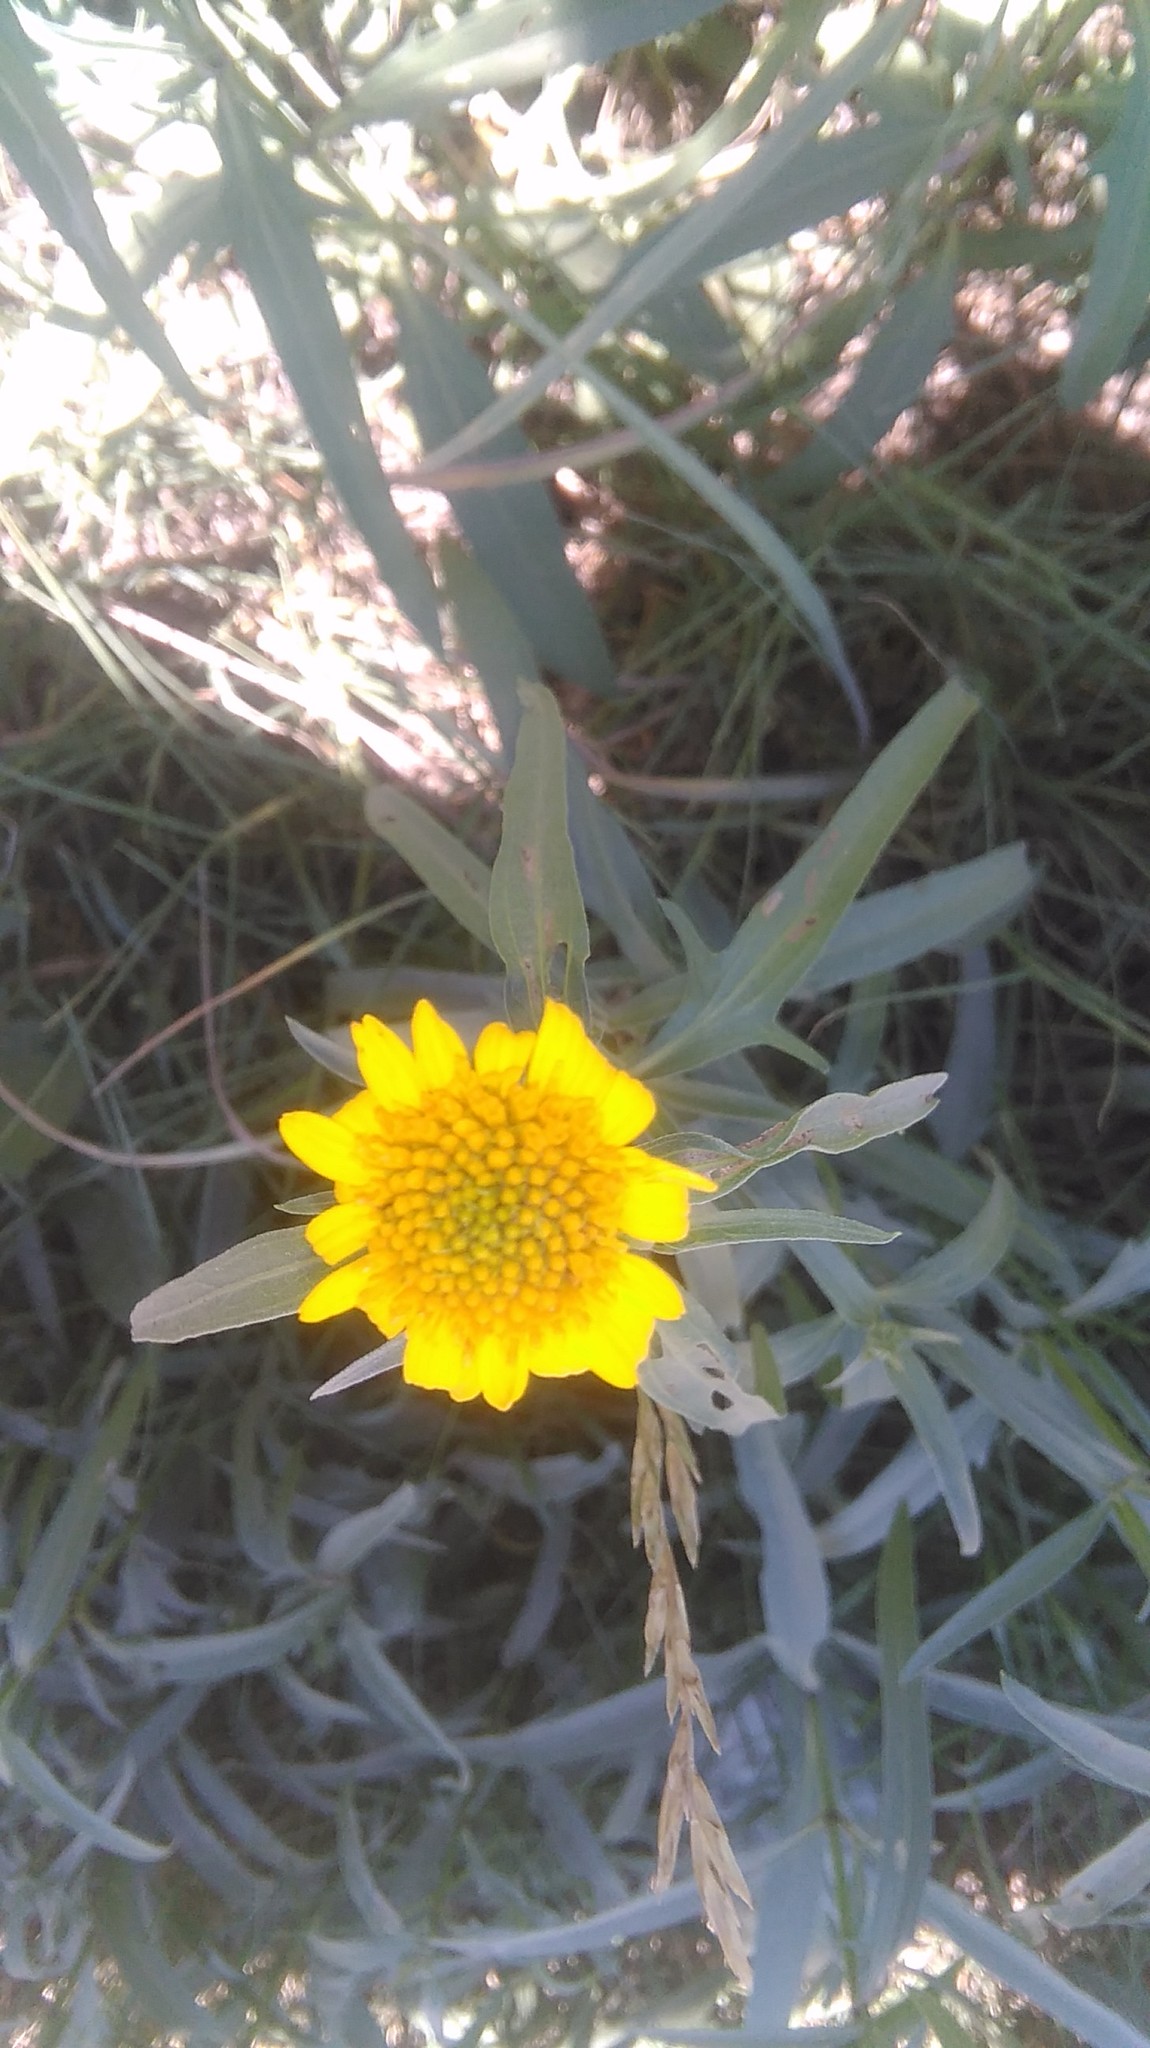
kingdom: Plantae
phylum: Tracheophyta
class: Magnoliopsida
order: Asterales
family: Asteraceae
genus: Pascalia
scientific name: Pascalia glauca
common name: Beach creeping oxeye
